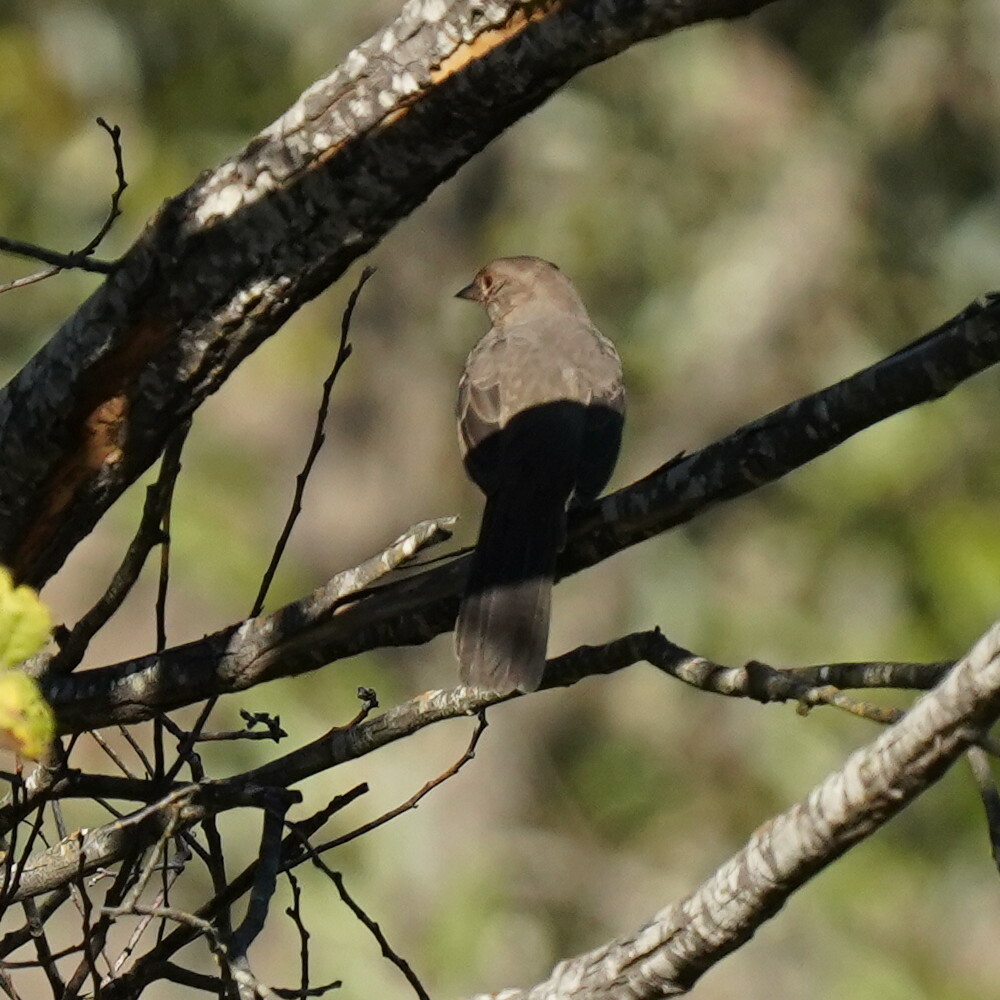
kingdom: Animalia
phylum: Chordata
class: Aves
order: Passeriformes
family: Passerellidae
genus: Melozone
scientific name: Melozone crissalis
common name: California towhee
